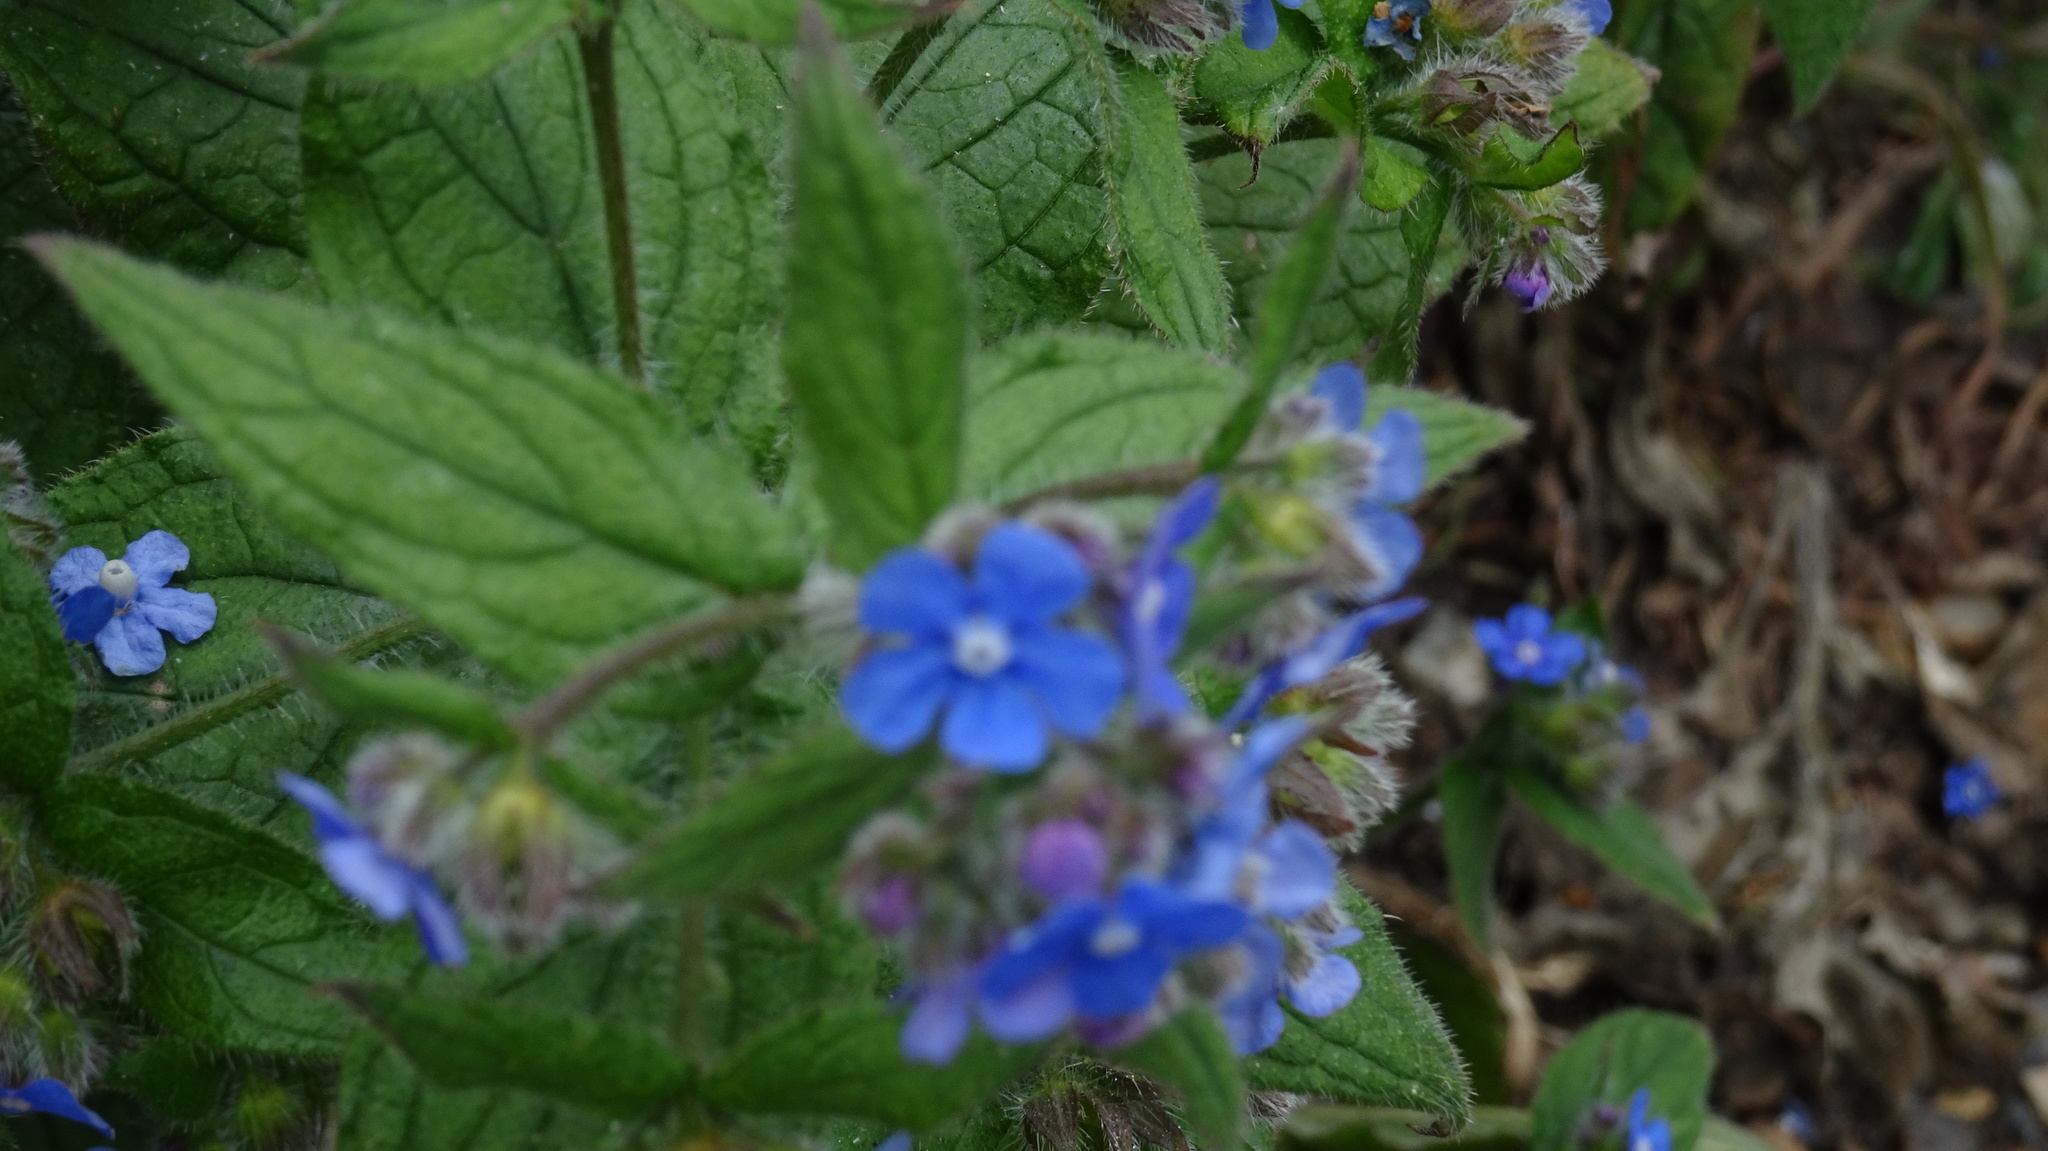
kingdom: Plantae
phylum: Tracheophyta
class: Magnoliopsida
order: Boraginales
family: Boraginaceae
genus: Pentaglottis
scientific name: Pentaglottis sempervirens
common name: Green alkanet
